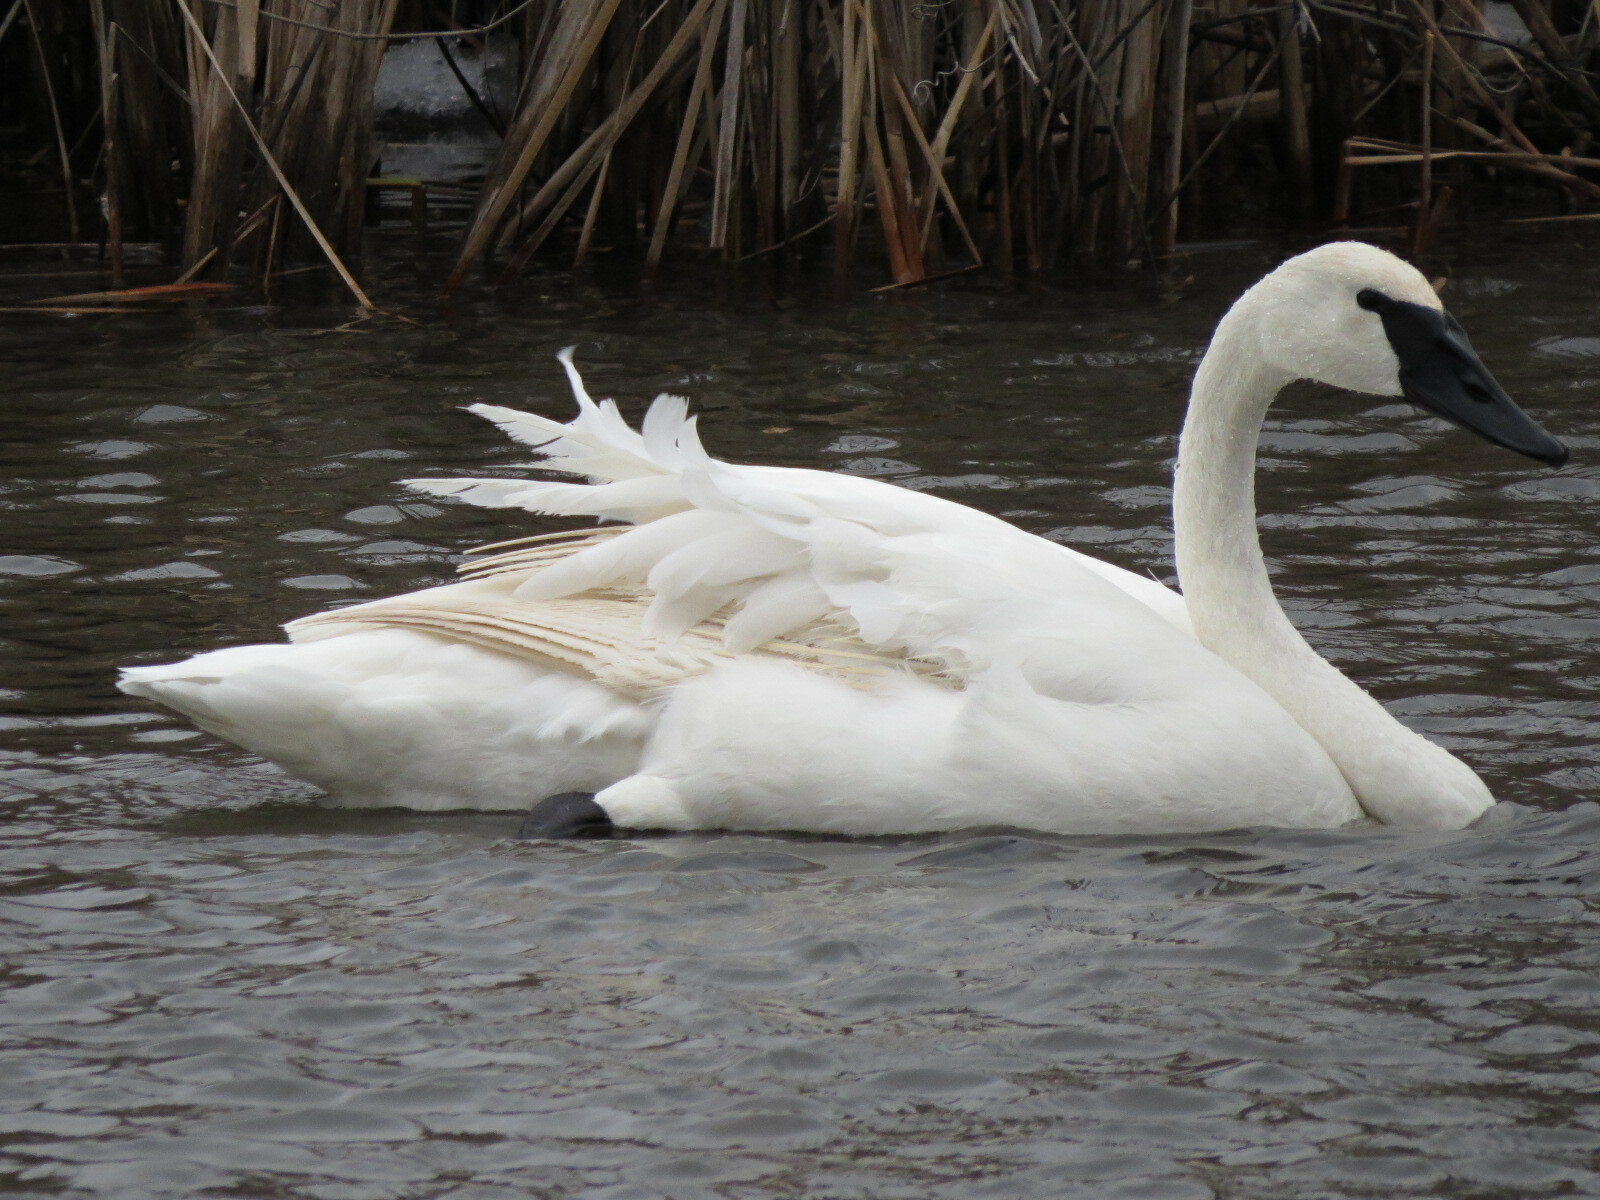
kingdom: Animalia
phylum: Chordata
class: Aves
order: Anseriformes
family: Anatidae
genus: Cygnus
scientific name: Cygnus buccinator
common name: Trumpeter swan
